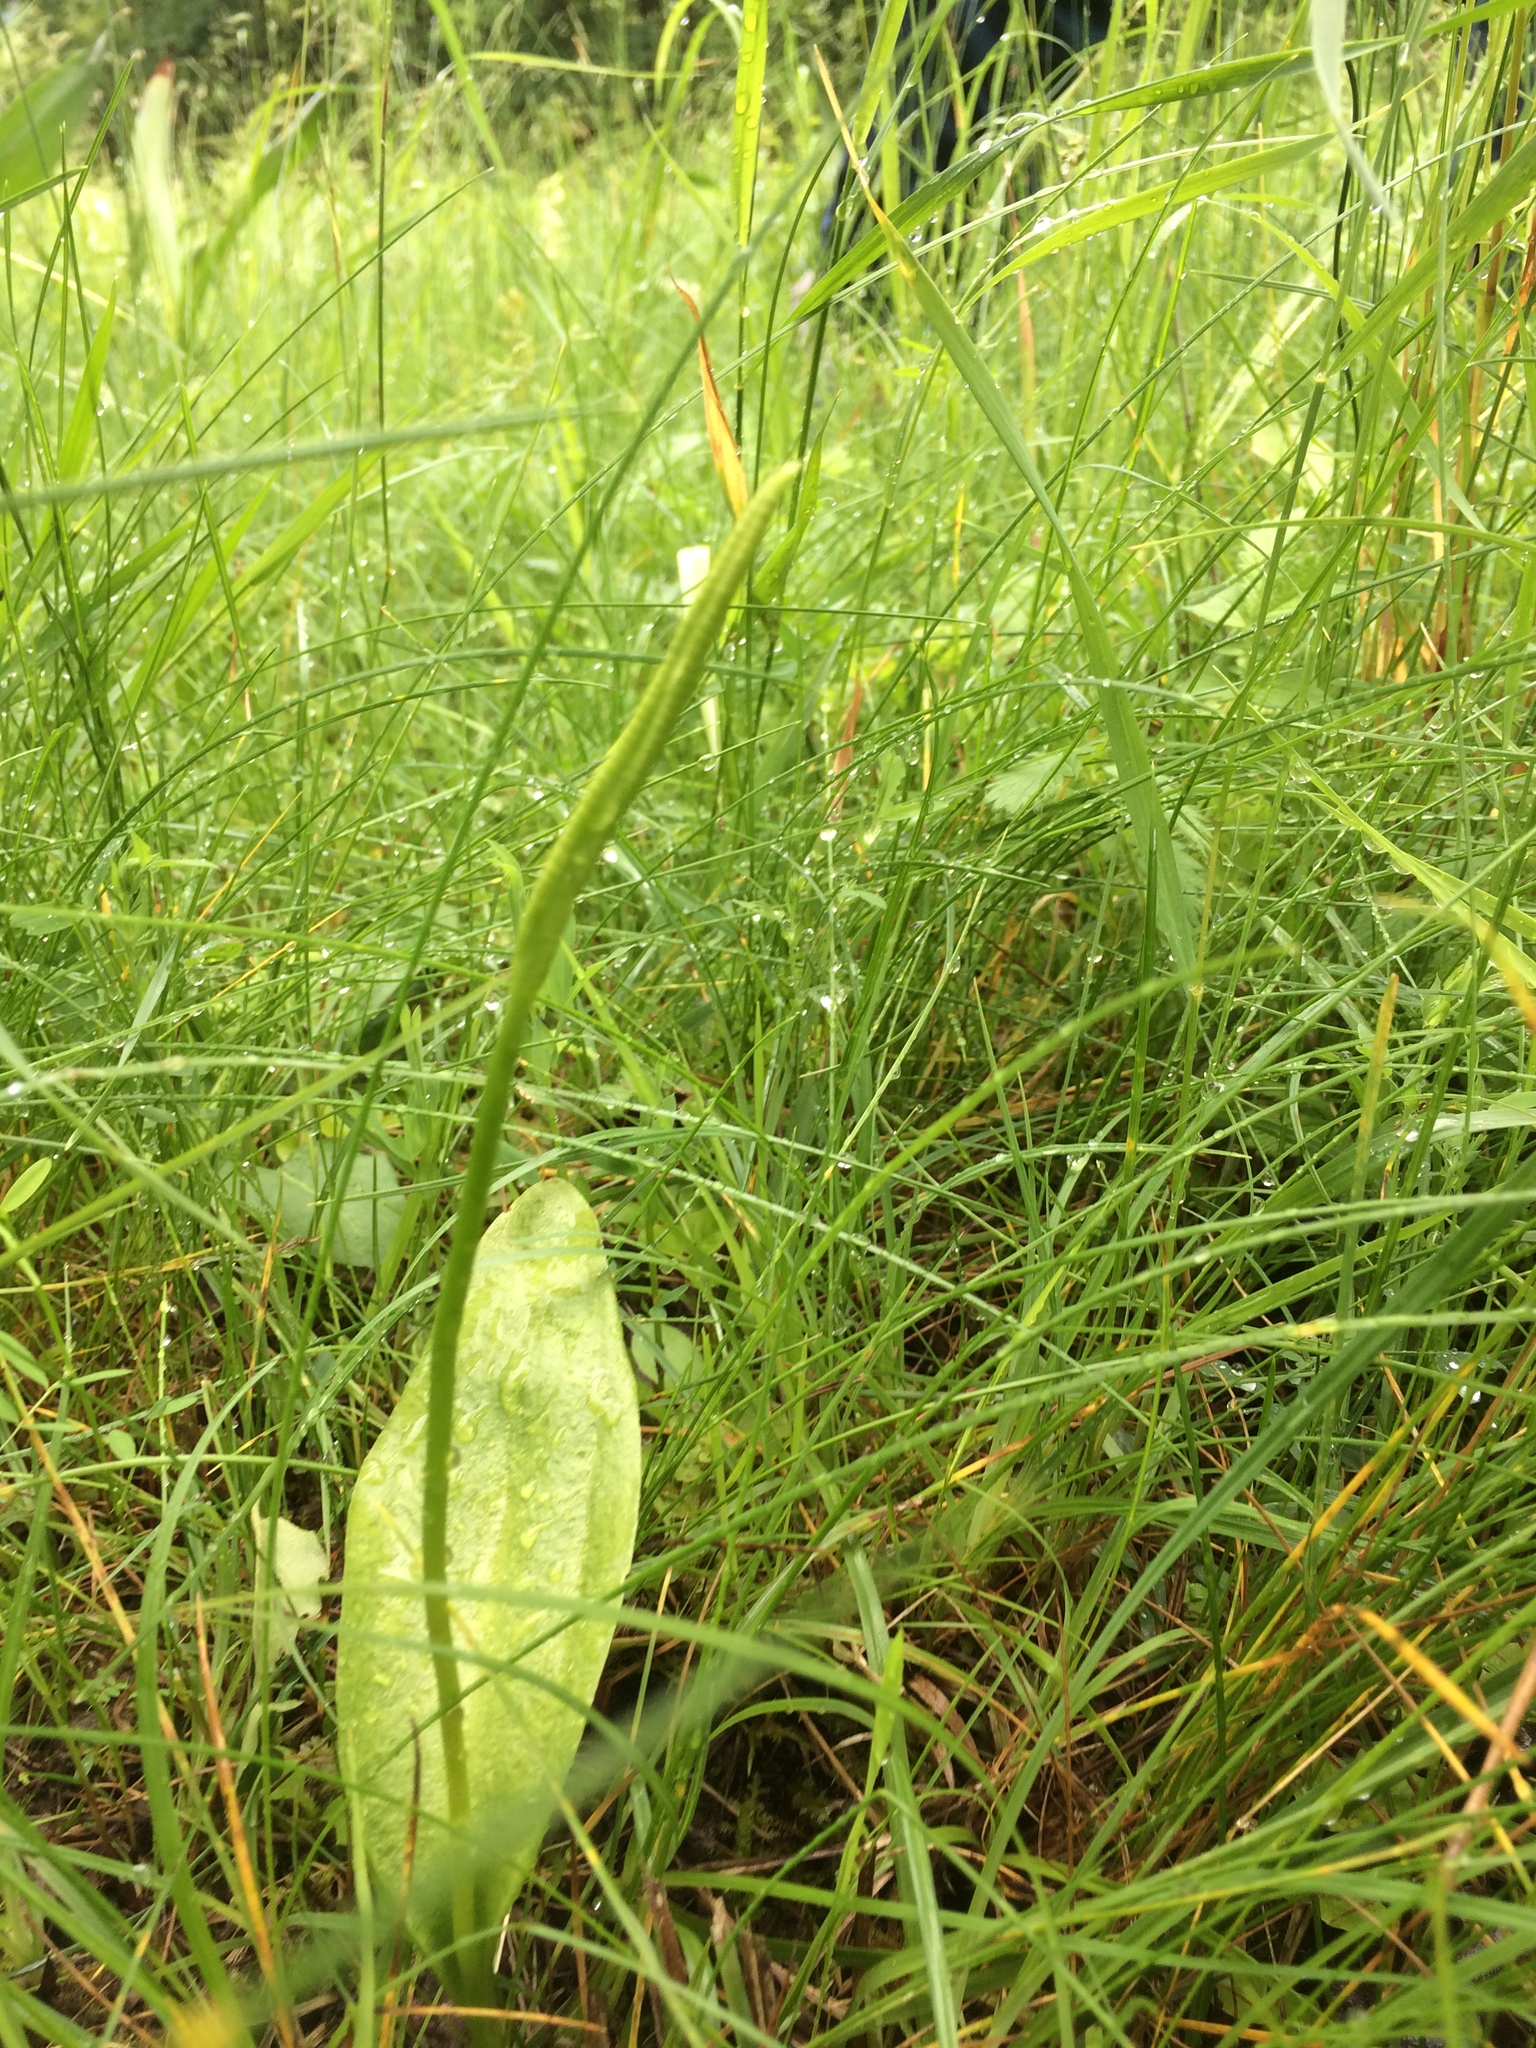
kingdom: Plantae
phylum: Tracheophyta
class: Polypodiopsida
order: Ophioglossales
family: Ophioglossaceae
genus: Ophioglossum
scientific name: Ophioglossum vulgatum
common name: Adder's-tongue
